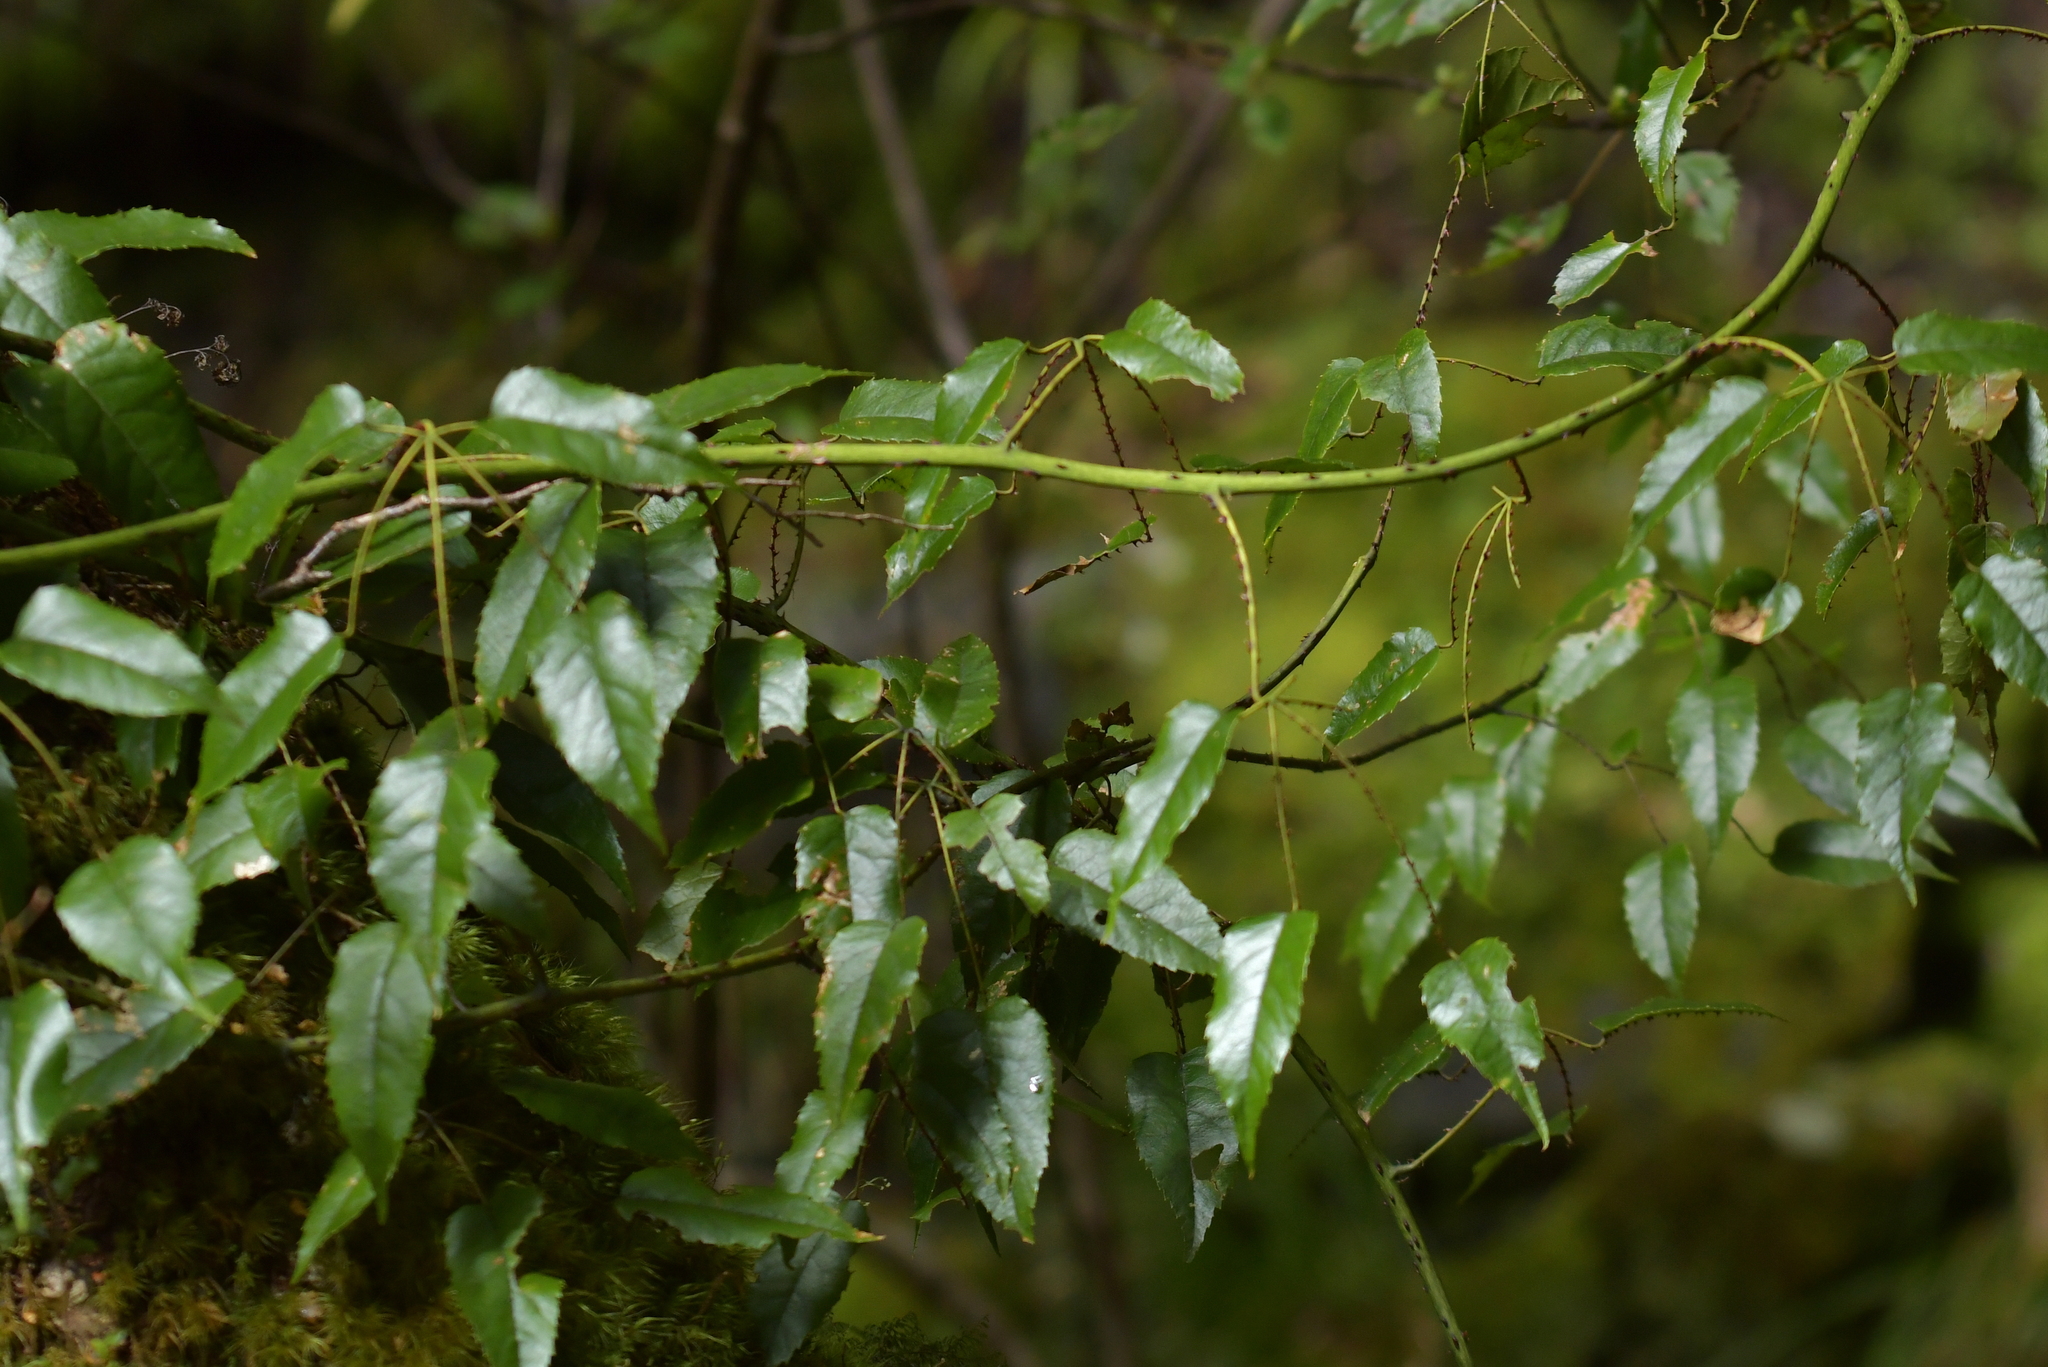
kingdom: Plantae
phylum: Tracheophyta
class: Magnoliopsida
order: Rosales
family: Rosaceae
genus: Rubus
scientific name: Rubus cissoides
